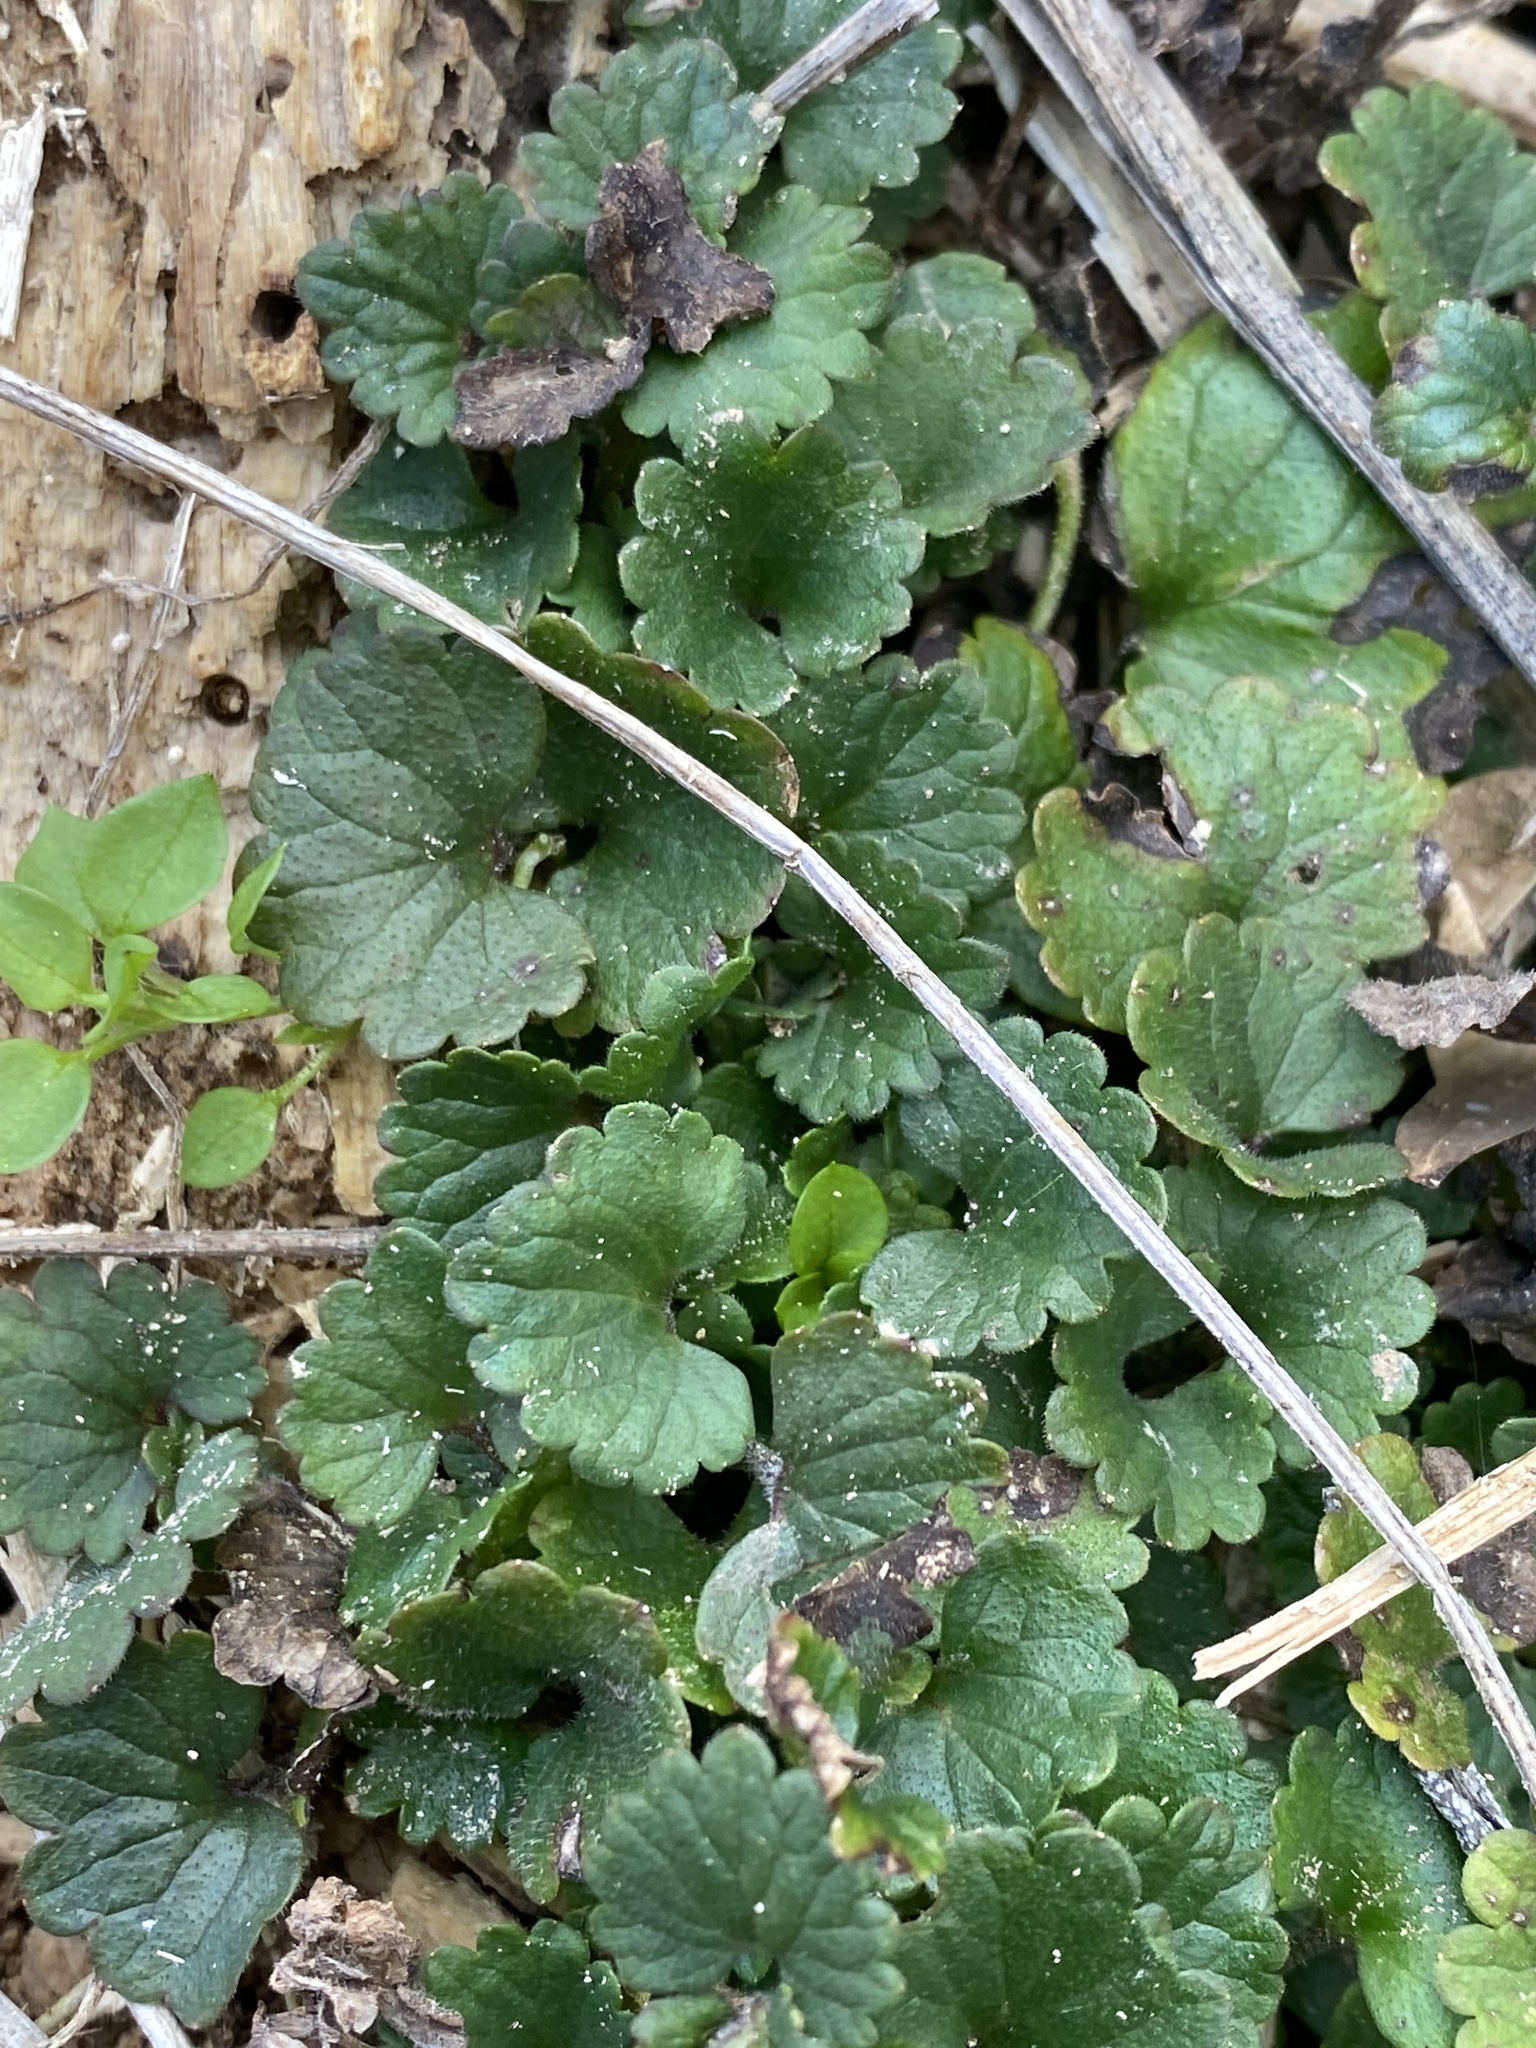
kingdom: Plantae
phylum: Tracheophyta
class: Magnoliopsida
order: Lamiales
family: Lamiaceae
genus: Glechoma
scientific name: Glechoma hederacea
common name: Ground ivy
